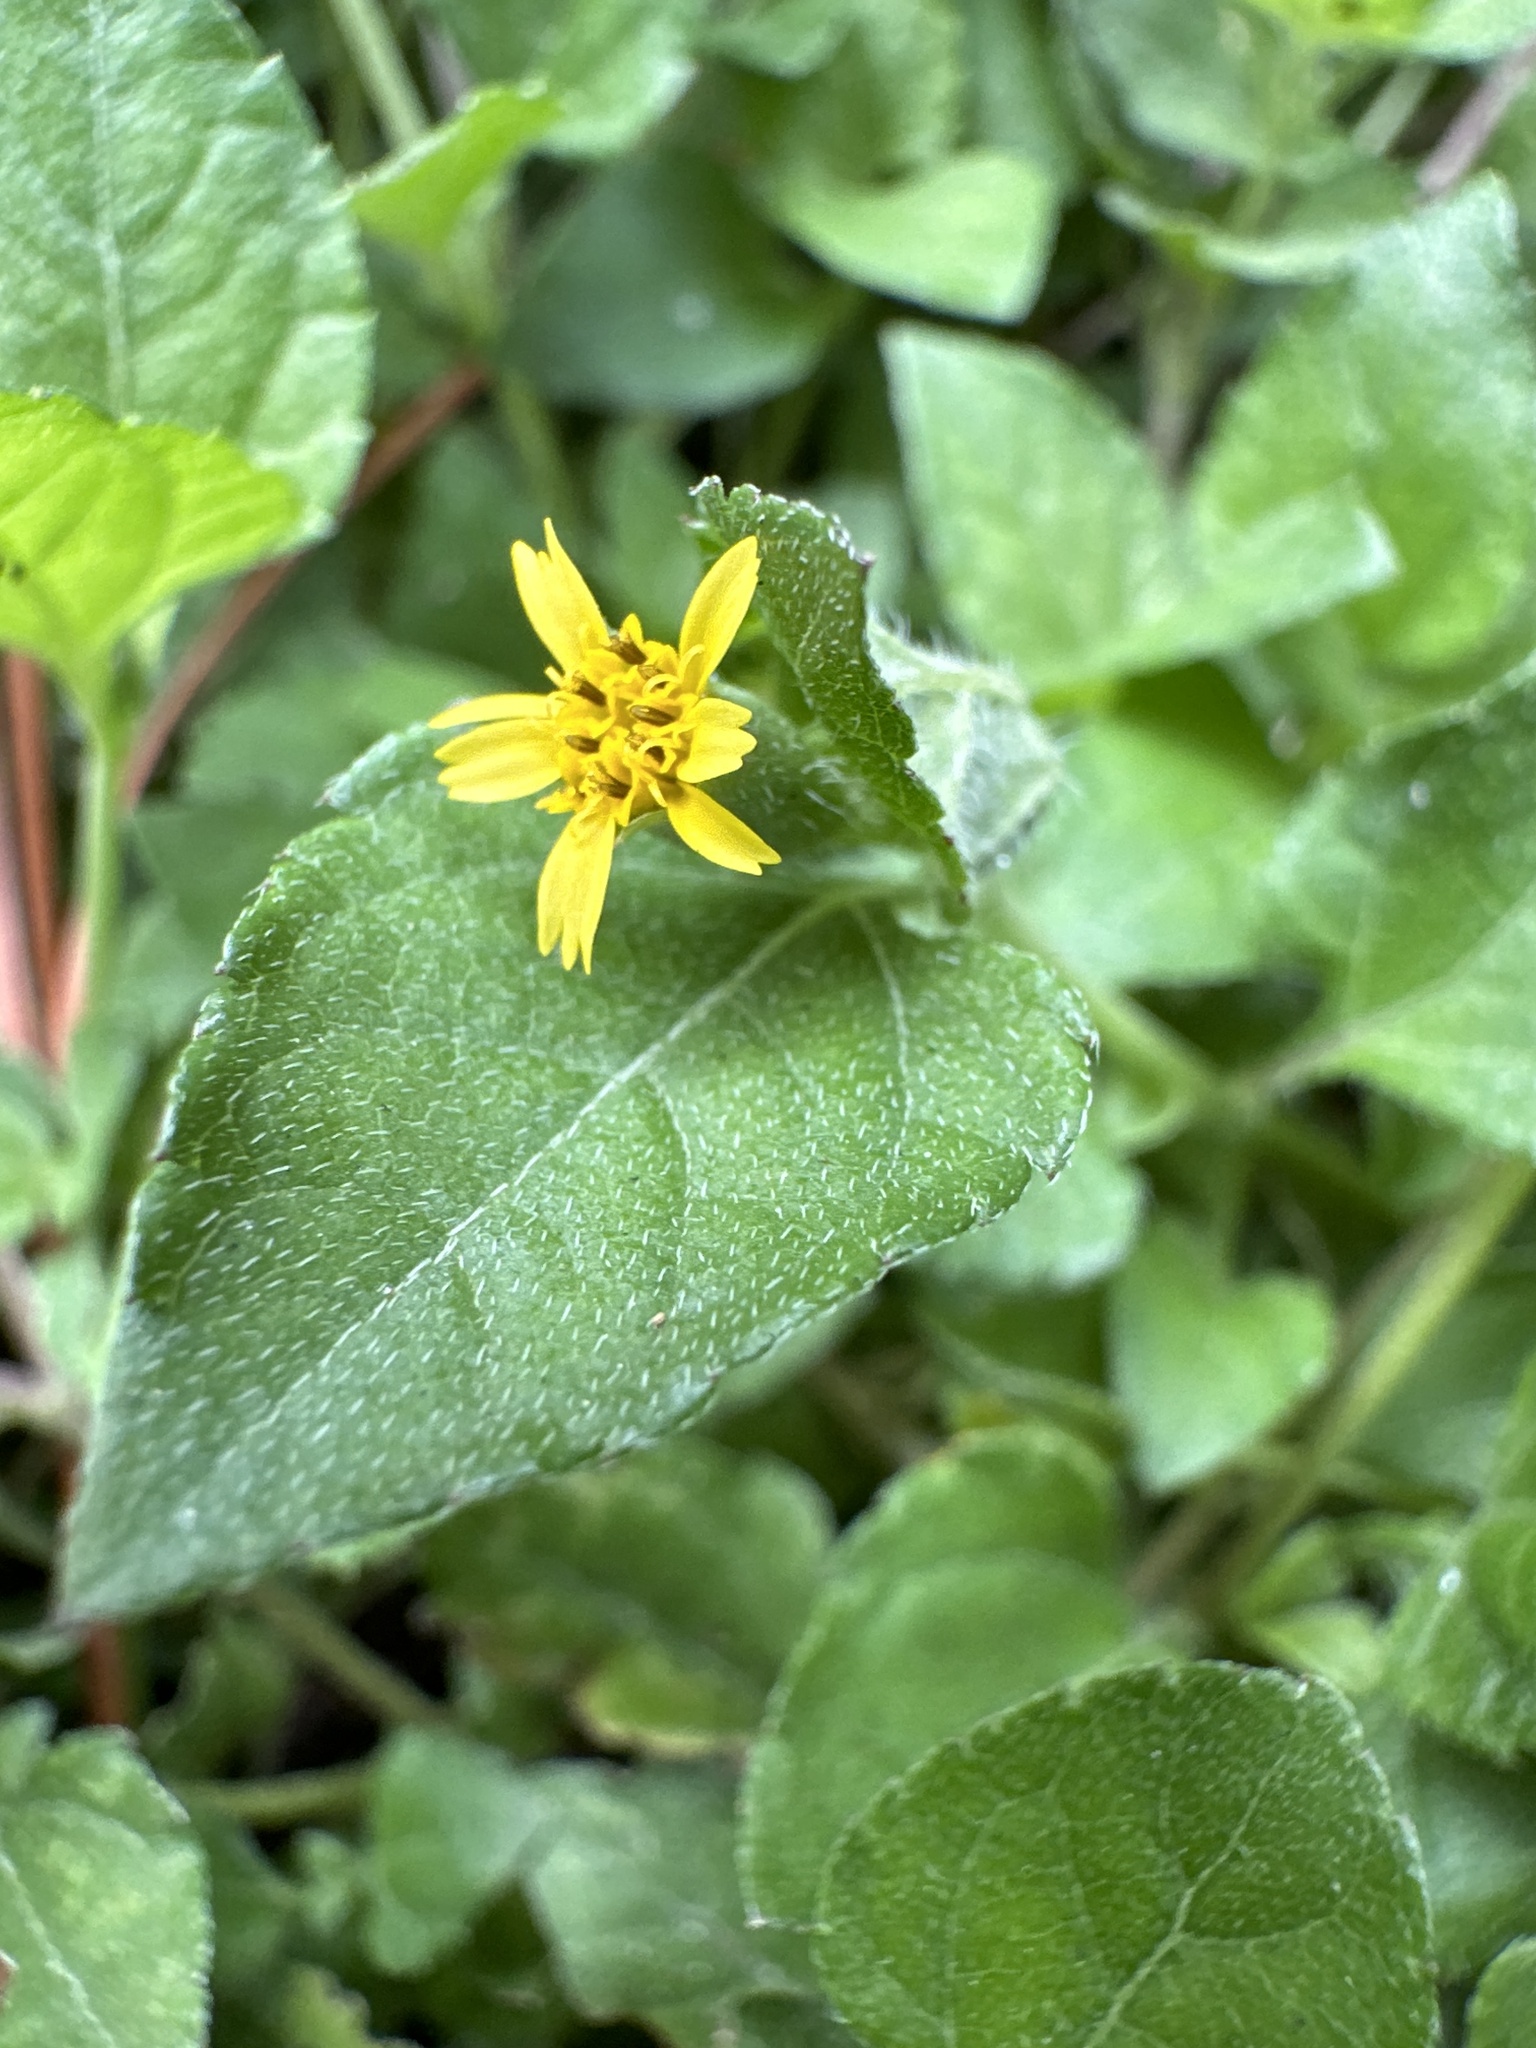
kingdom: Plantae
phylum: Tracheophyta
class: Magnoliopsida
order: Asterales
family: Asteraceae
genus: Calyptocarpus
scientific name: Calyptocarpus vialis
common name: Straggler daisy
